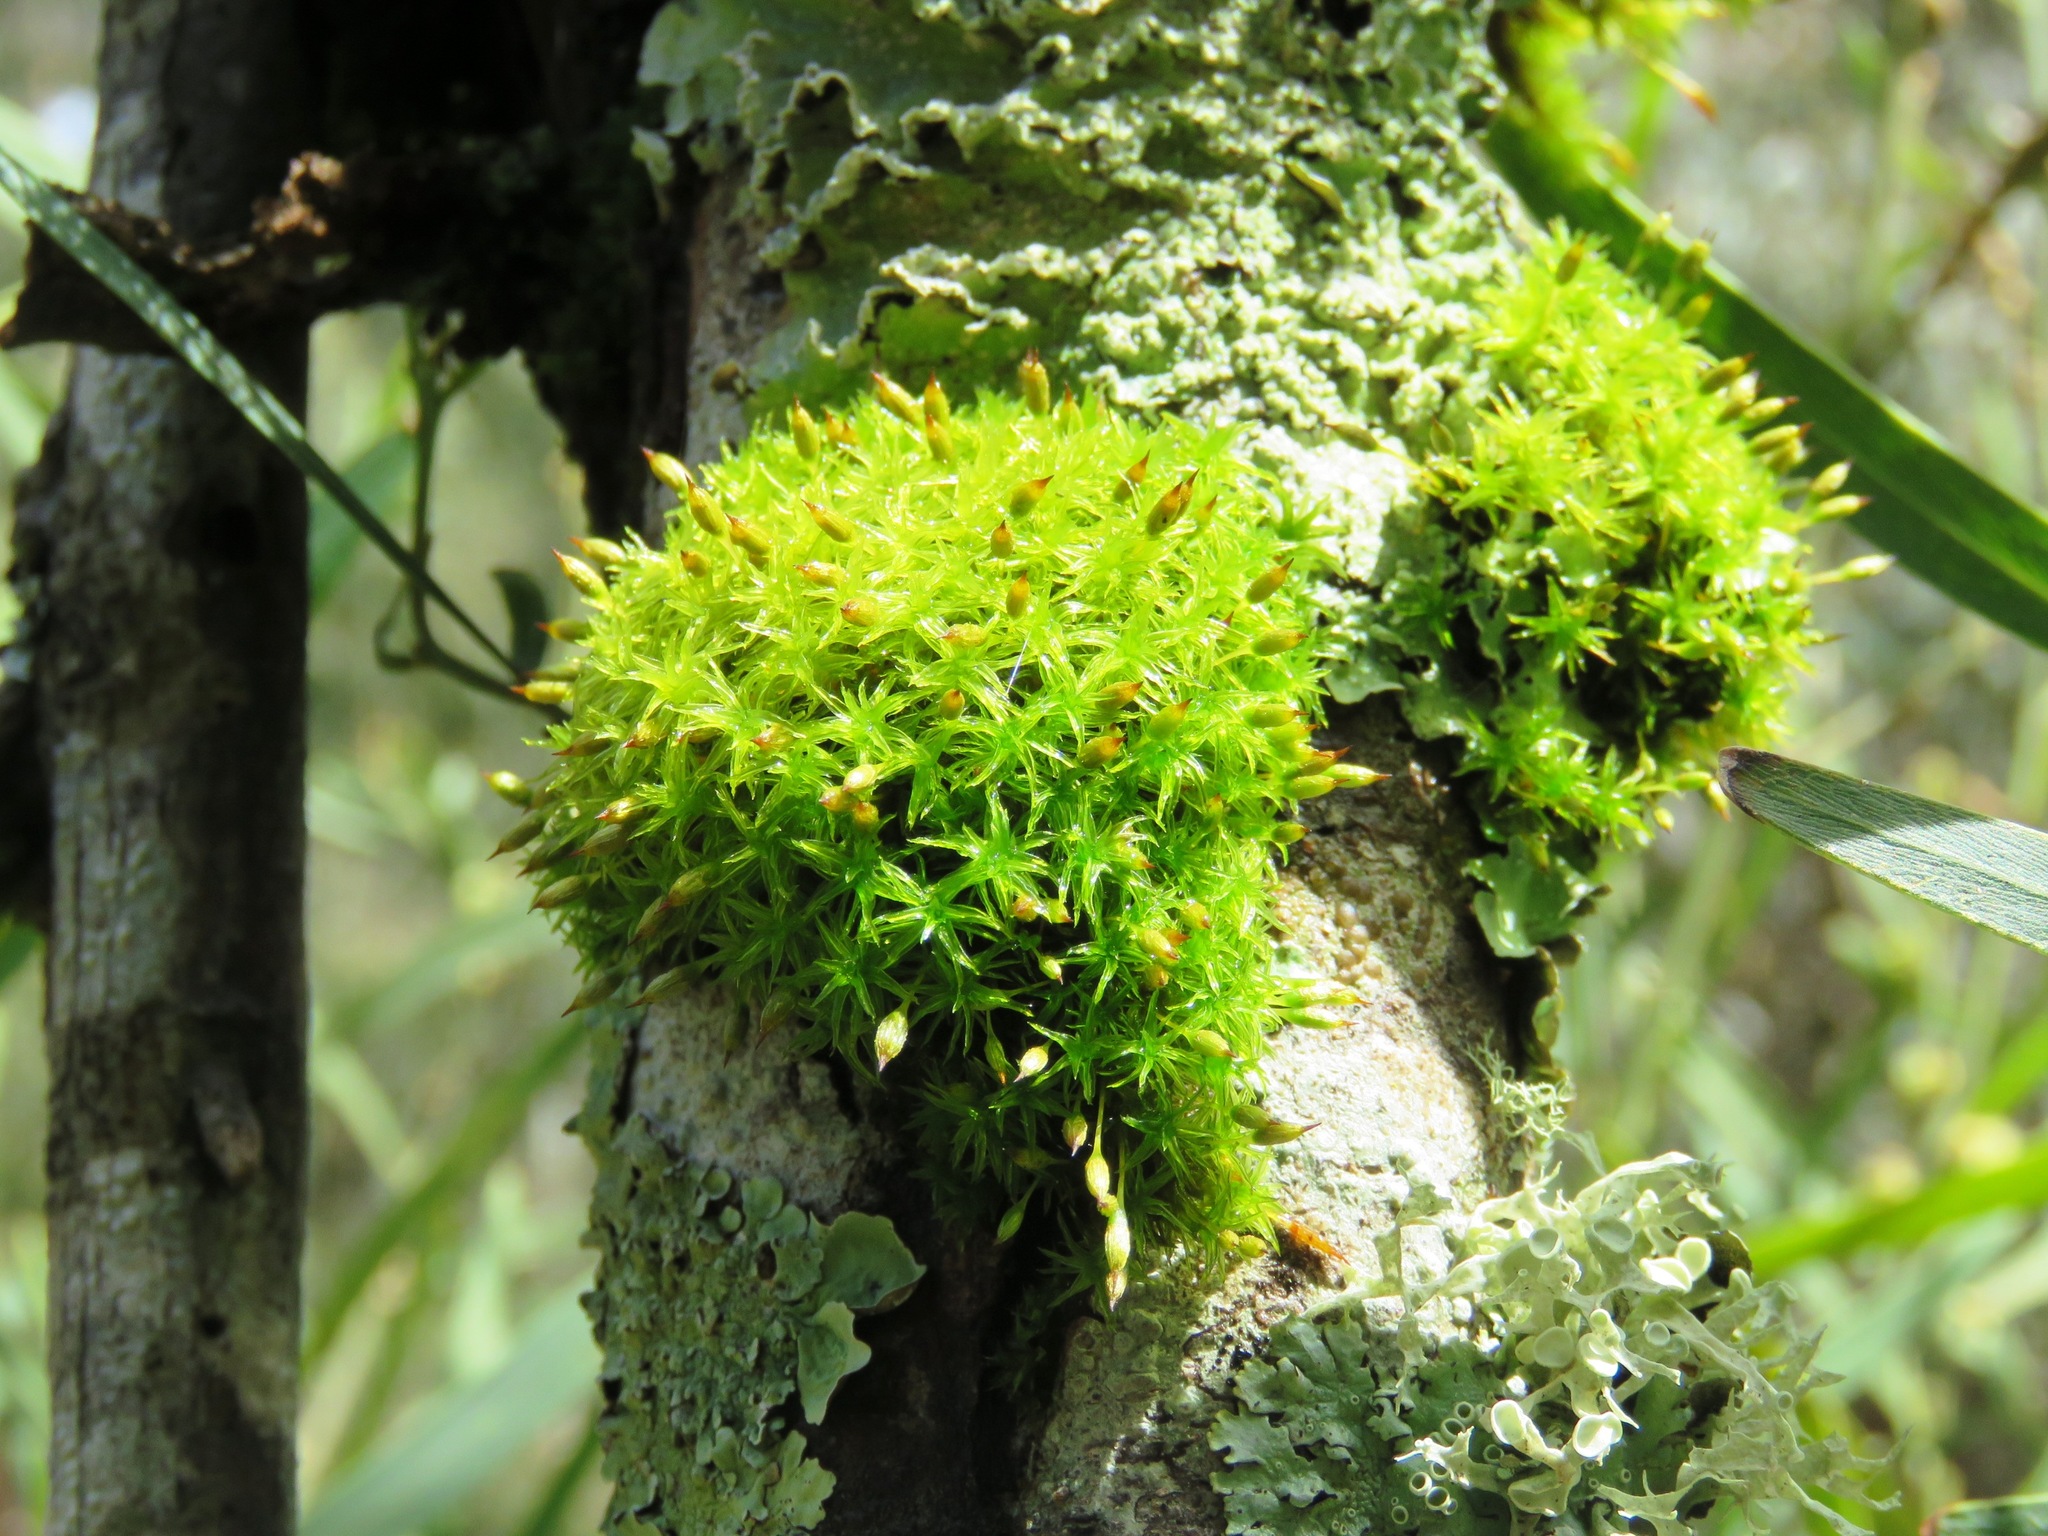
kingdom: Plantae
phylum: Bryophyta
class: Bryopsida
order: Orthotrichales
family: Orthotrichaceae
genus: Lewinskya
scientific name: Lewinskya tasmanica
